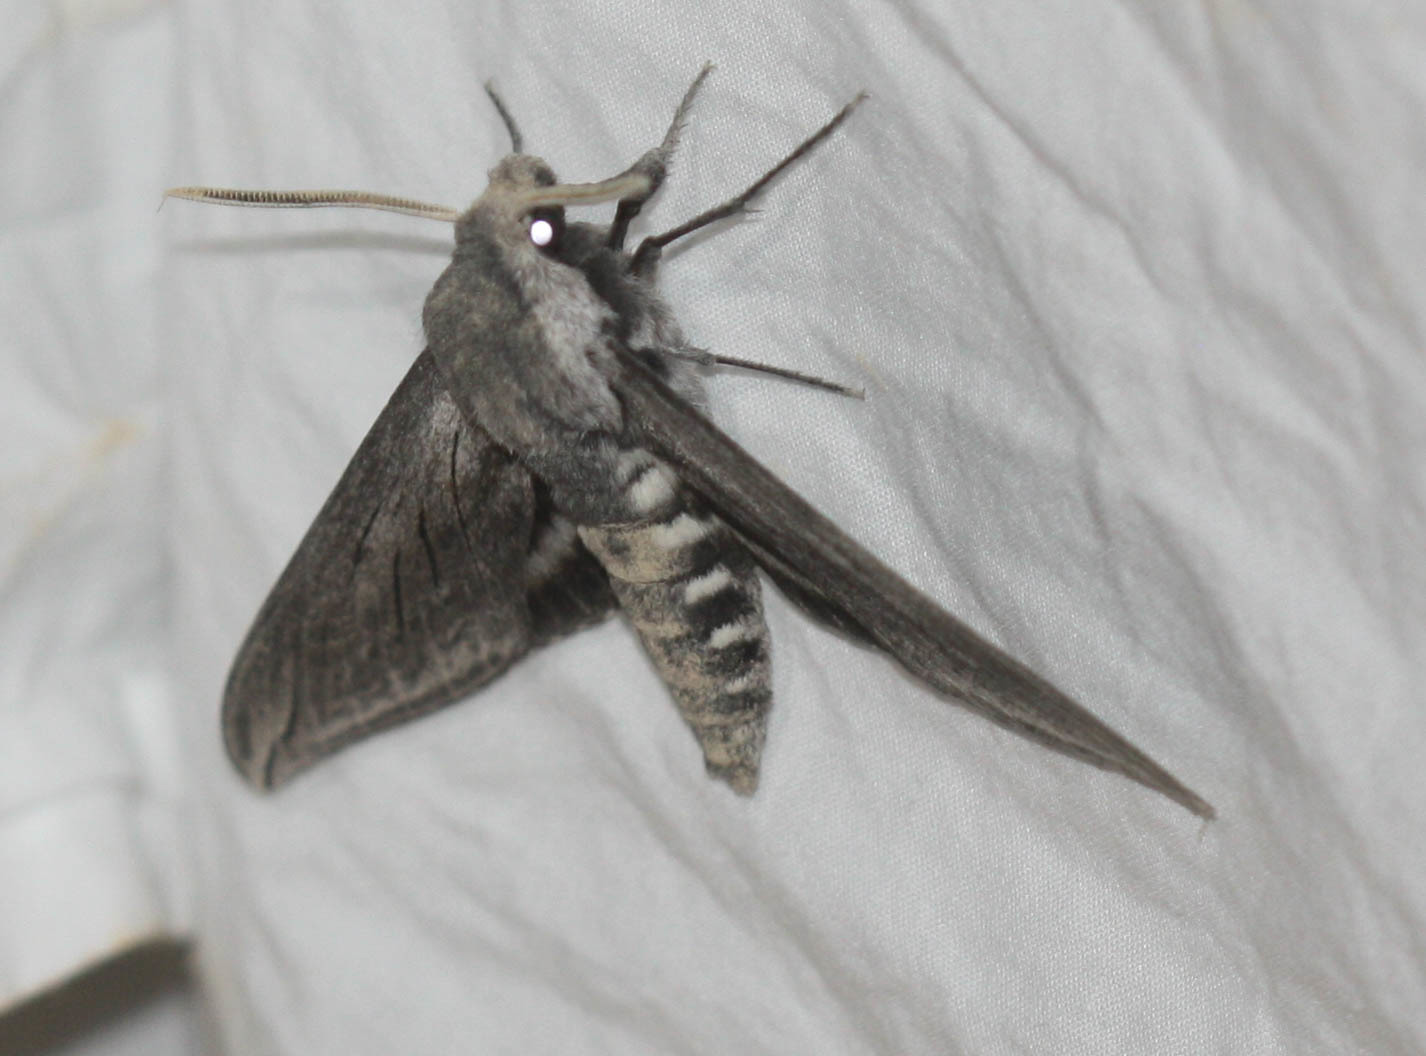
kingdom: Animalia
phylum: Arthropoda
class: Insecta
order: Lepidoptera
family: Sphingidae
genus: Sphinx
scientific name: Sphinx perelegans
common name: Elegant sphinx
